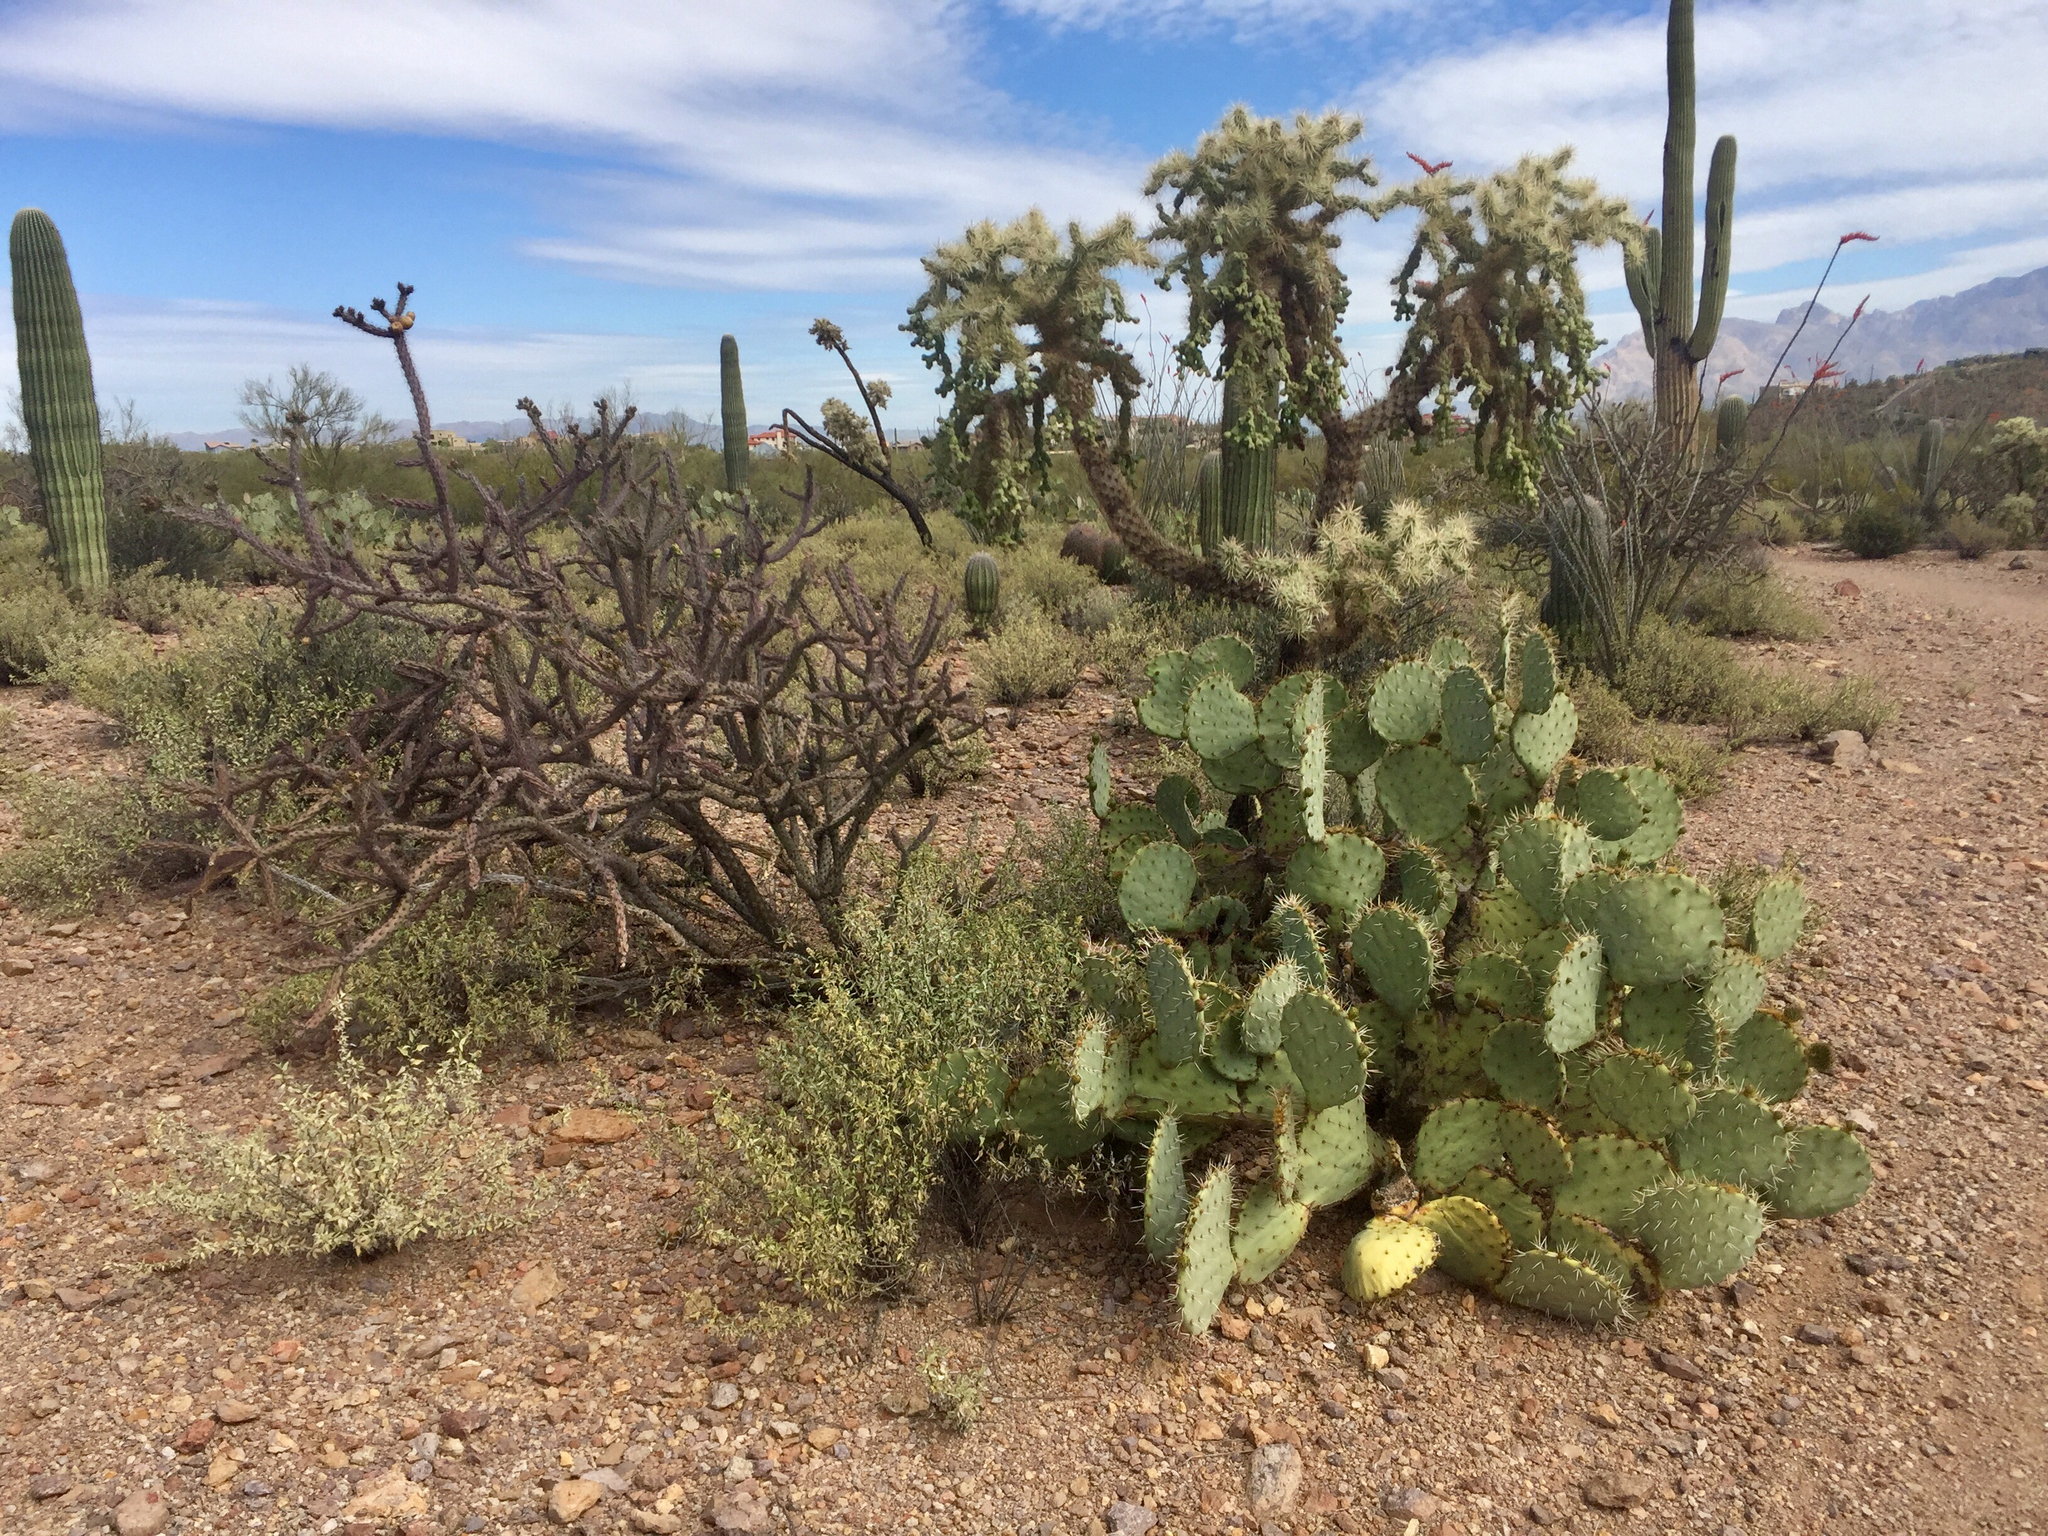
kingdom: Plantae
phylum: Tracheophyta
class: Magnoliopsida
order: Caryophyllales
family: Cactaceae
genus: Cylindropuntia
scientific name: Cylindropuntia thurberi
